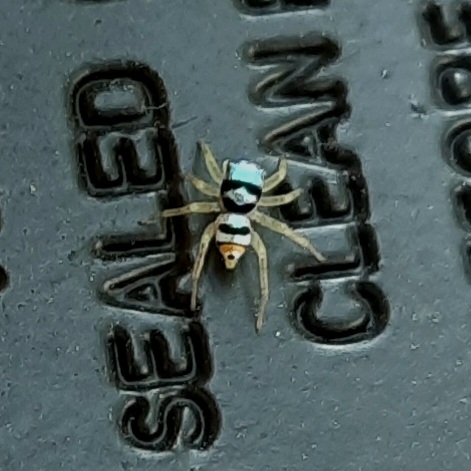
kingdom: Animalia
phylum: Arthropoda
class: Arachnida
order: Araneae
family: Salticidae
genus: Phintella
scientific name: Phintella vittata
